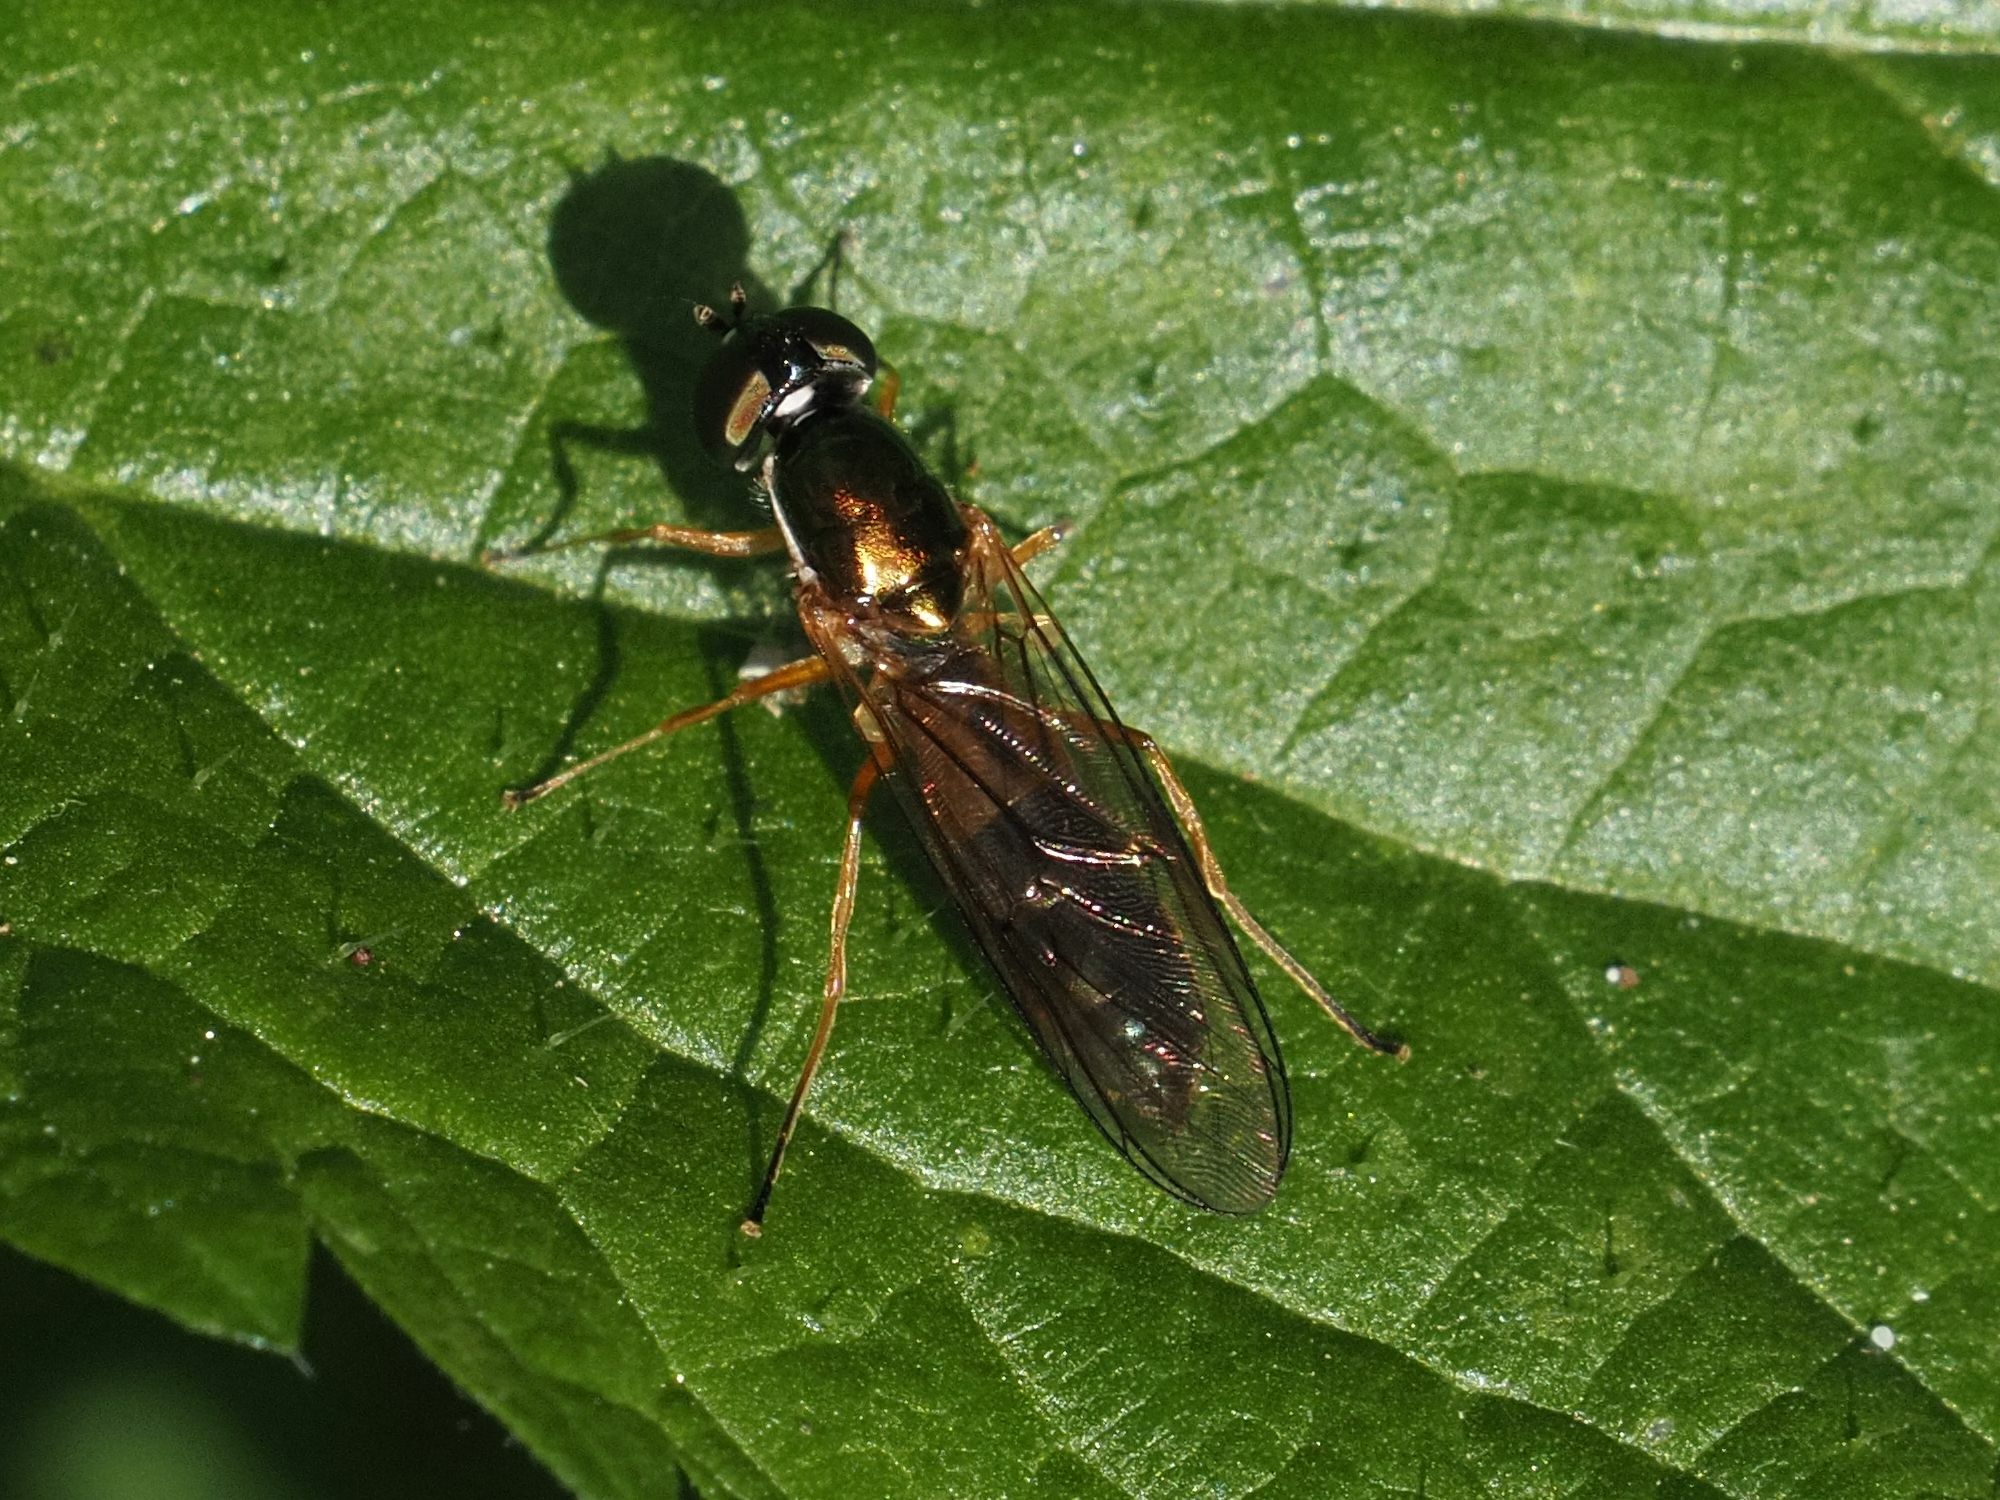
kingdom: Animalia
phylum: Arthropoda
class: Insecta
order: Diptera
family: Stratiomyidae
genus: Sargus
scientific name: Sargus bipunctatus
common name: Twin-spot centurion
